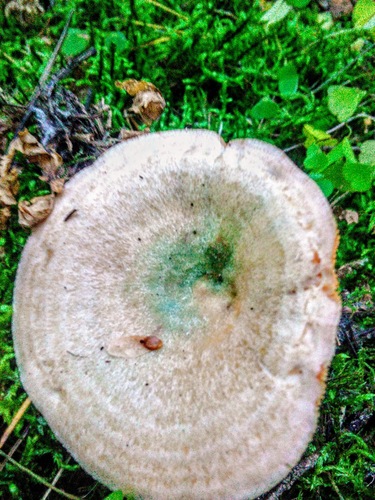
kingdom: Fungi
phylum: Basidiomycota
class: Agaricomycetes
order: Russulales
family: Russulaceae
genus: Lactarius
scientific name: Lactarius deliciosus
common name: Saffron milk-cap
